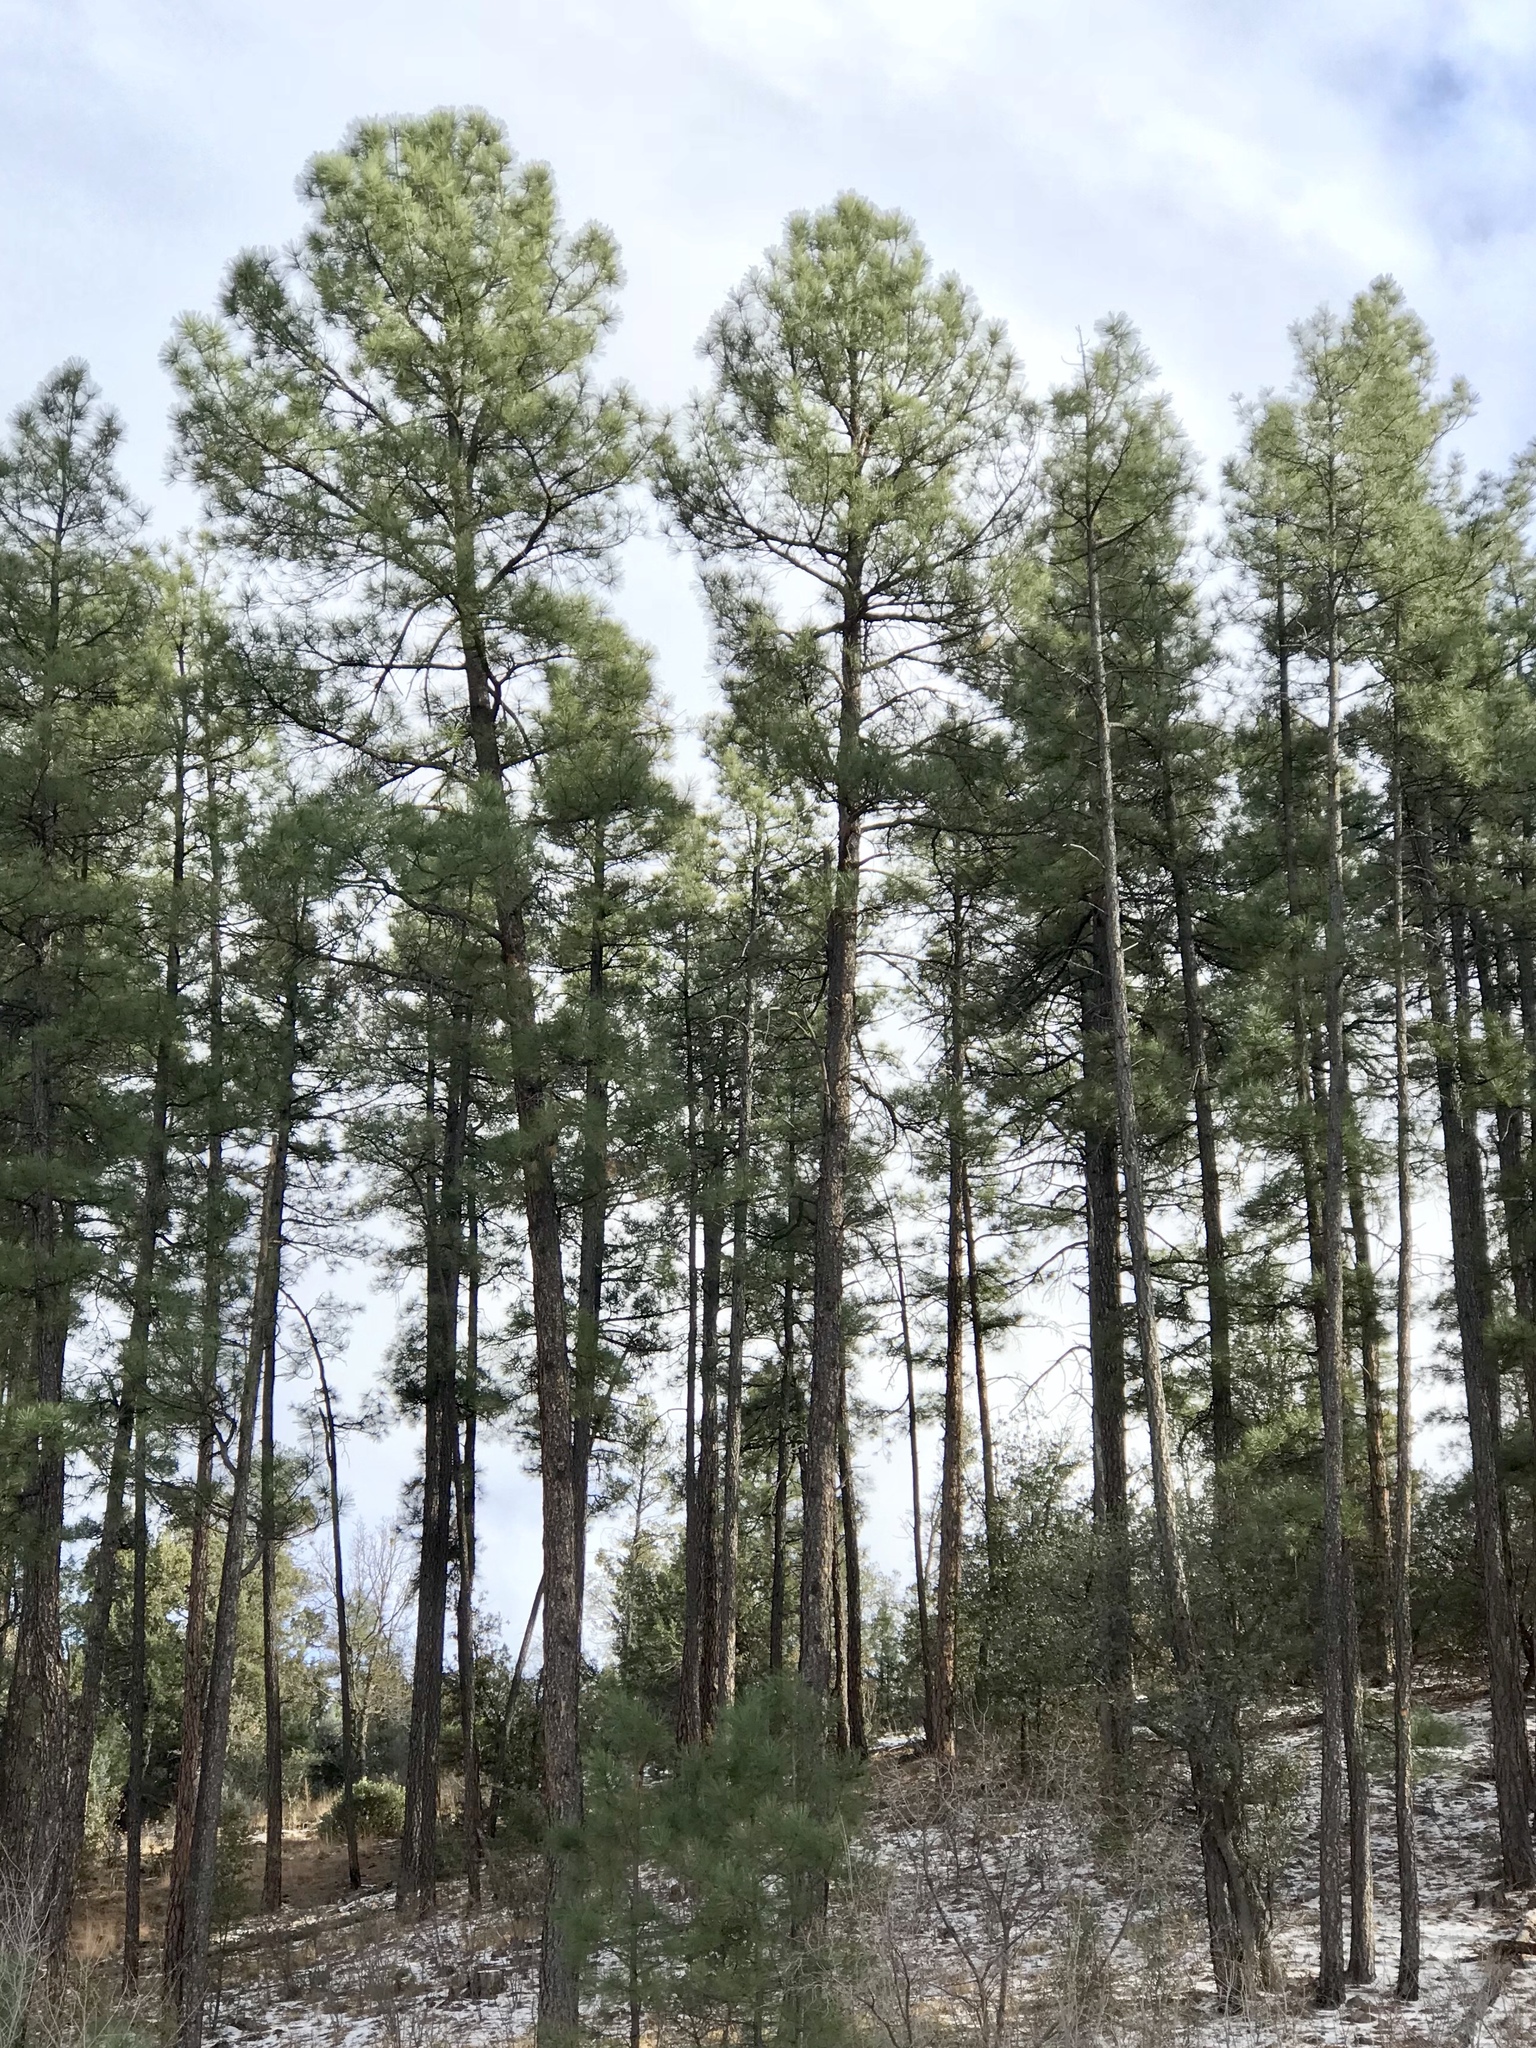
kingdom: Plantae
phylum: Tracheophyta
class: Pinopsida
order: Pinales
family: Pinaceae
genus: Pinus
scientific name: Pinus ponderosa
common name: Western yellow-pine
